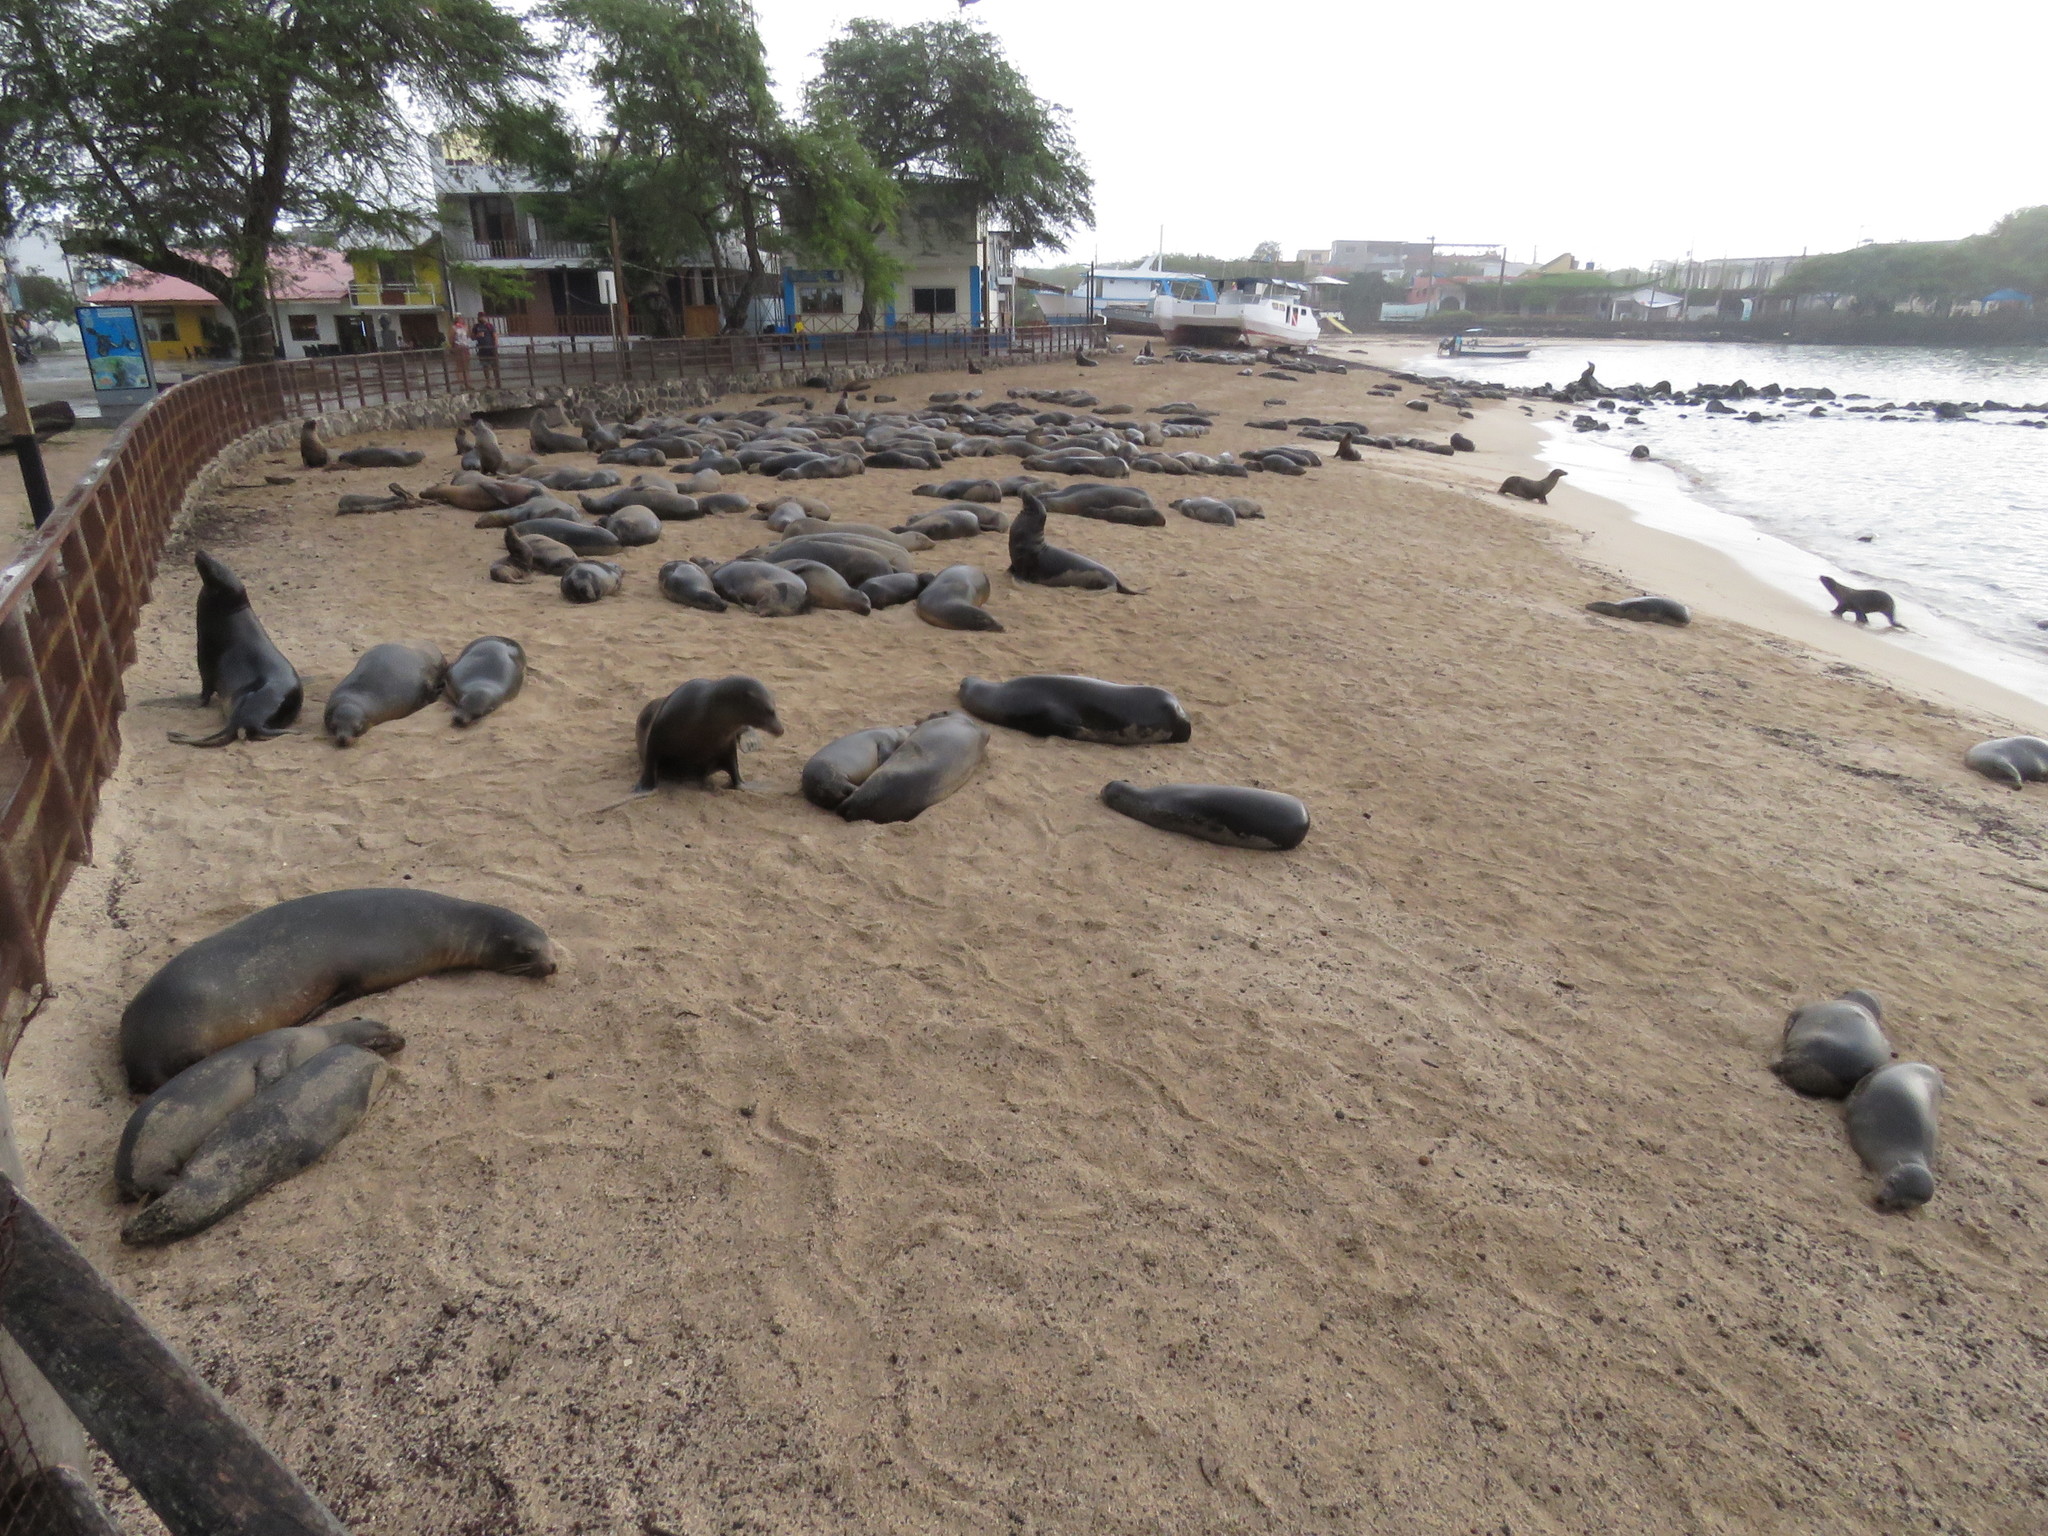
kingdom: Animalia
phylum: Chordata
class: Mammalia
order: Carnivora
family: Otariidae
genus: Zalophus
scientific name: Zalophus wollebaeki
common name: Galapagos sea lion
